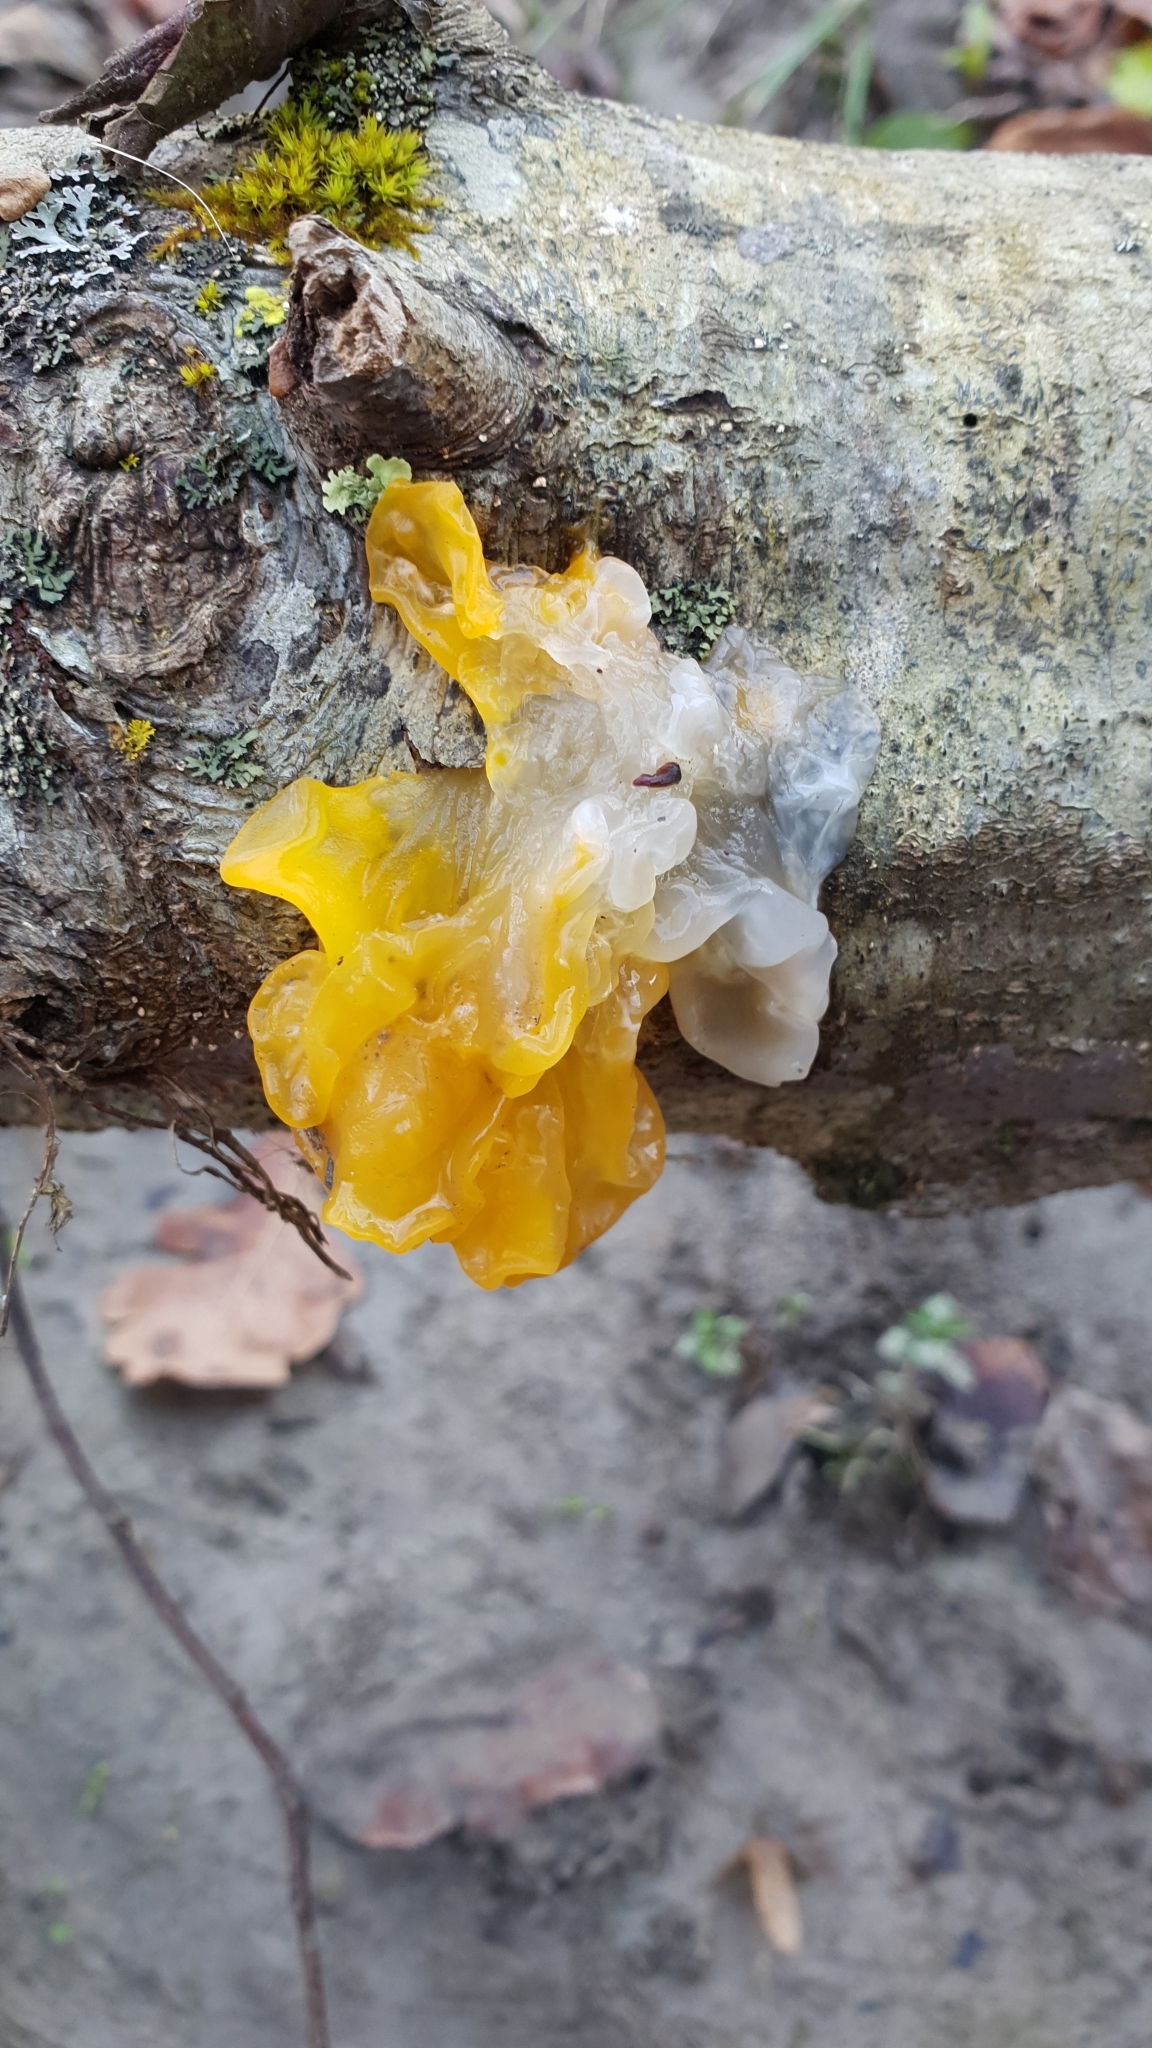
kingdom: Fungi
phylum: Basidiomycota
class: Tremellomycetes
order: Tremellales
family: Tremellaceae
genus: Tremella
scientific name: Tremella mesenterica
